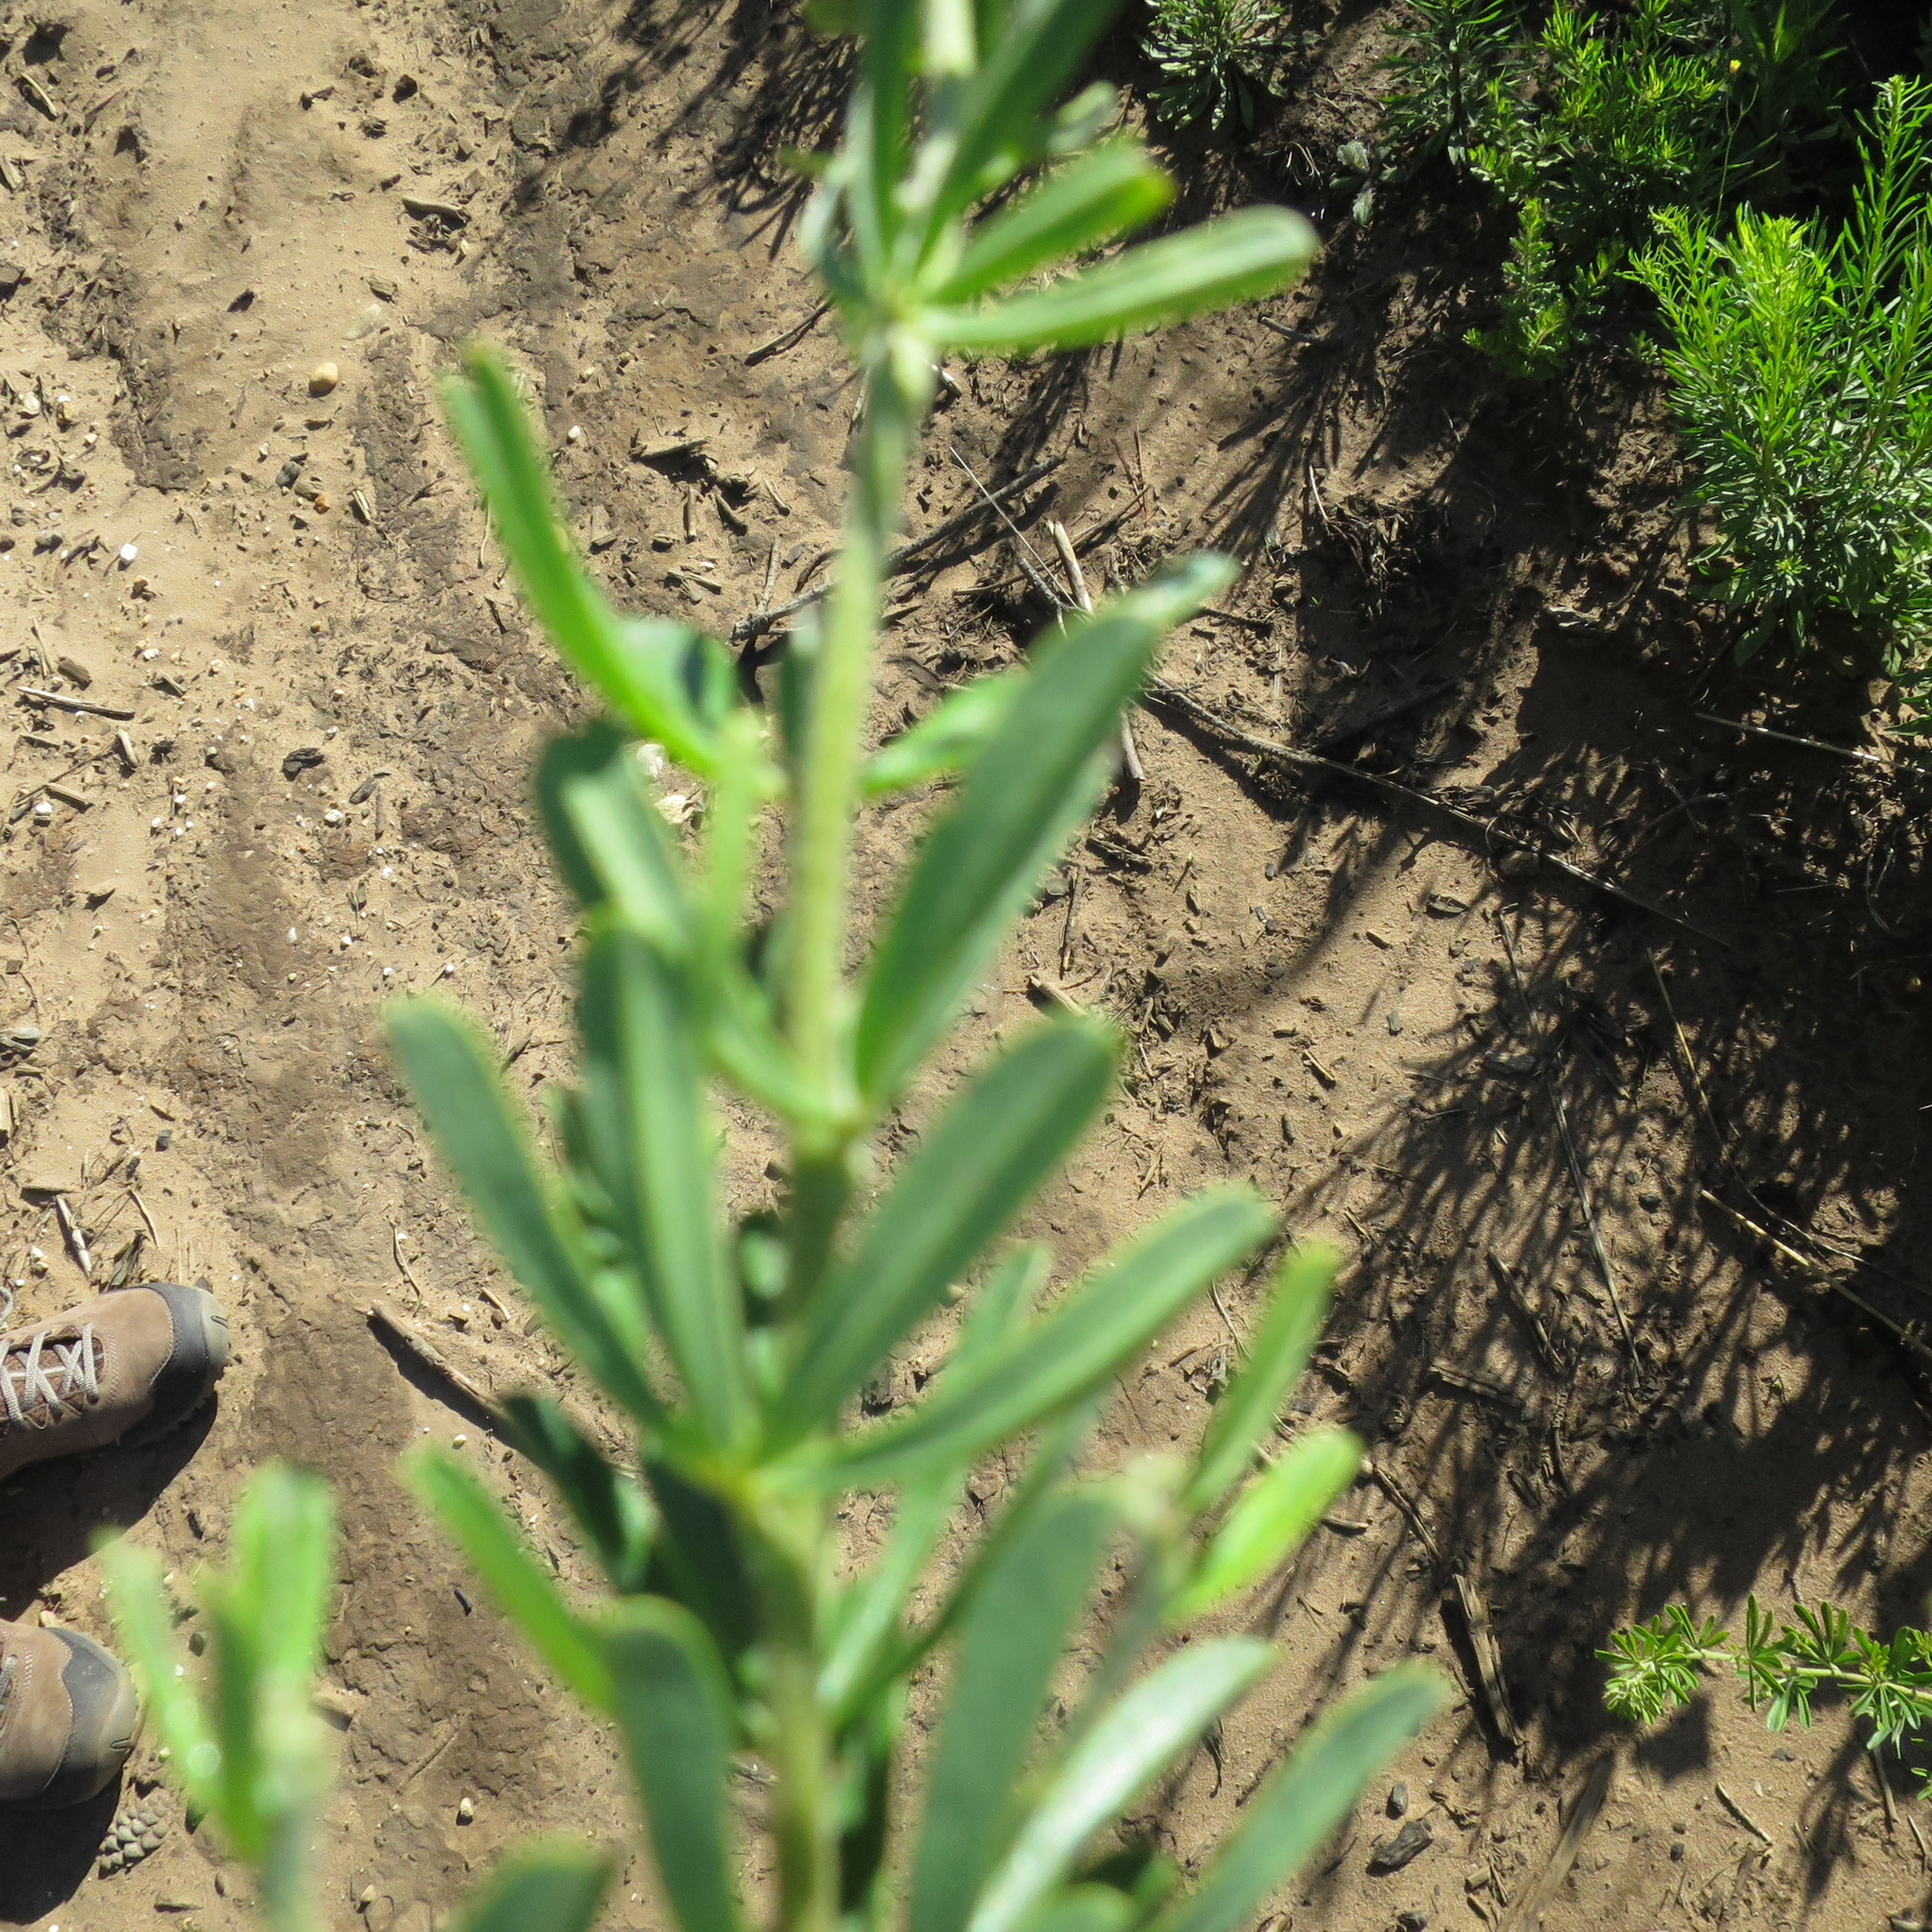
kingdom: Plantae
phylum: Tracheophyta
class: Magnoliopsida
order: Fabales
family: Fabaceae
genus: Indigofera
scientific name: Indigofera flabellata
